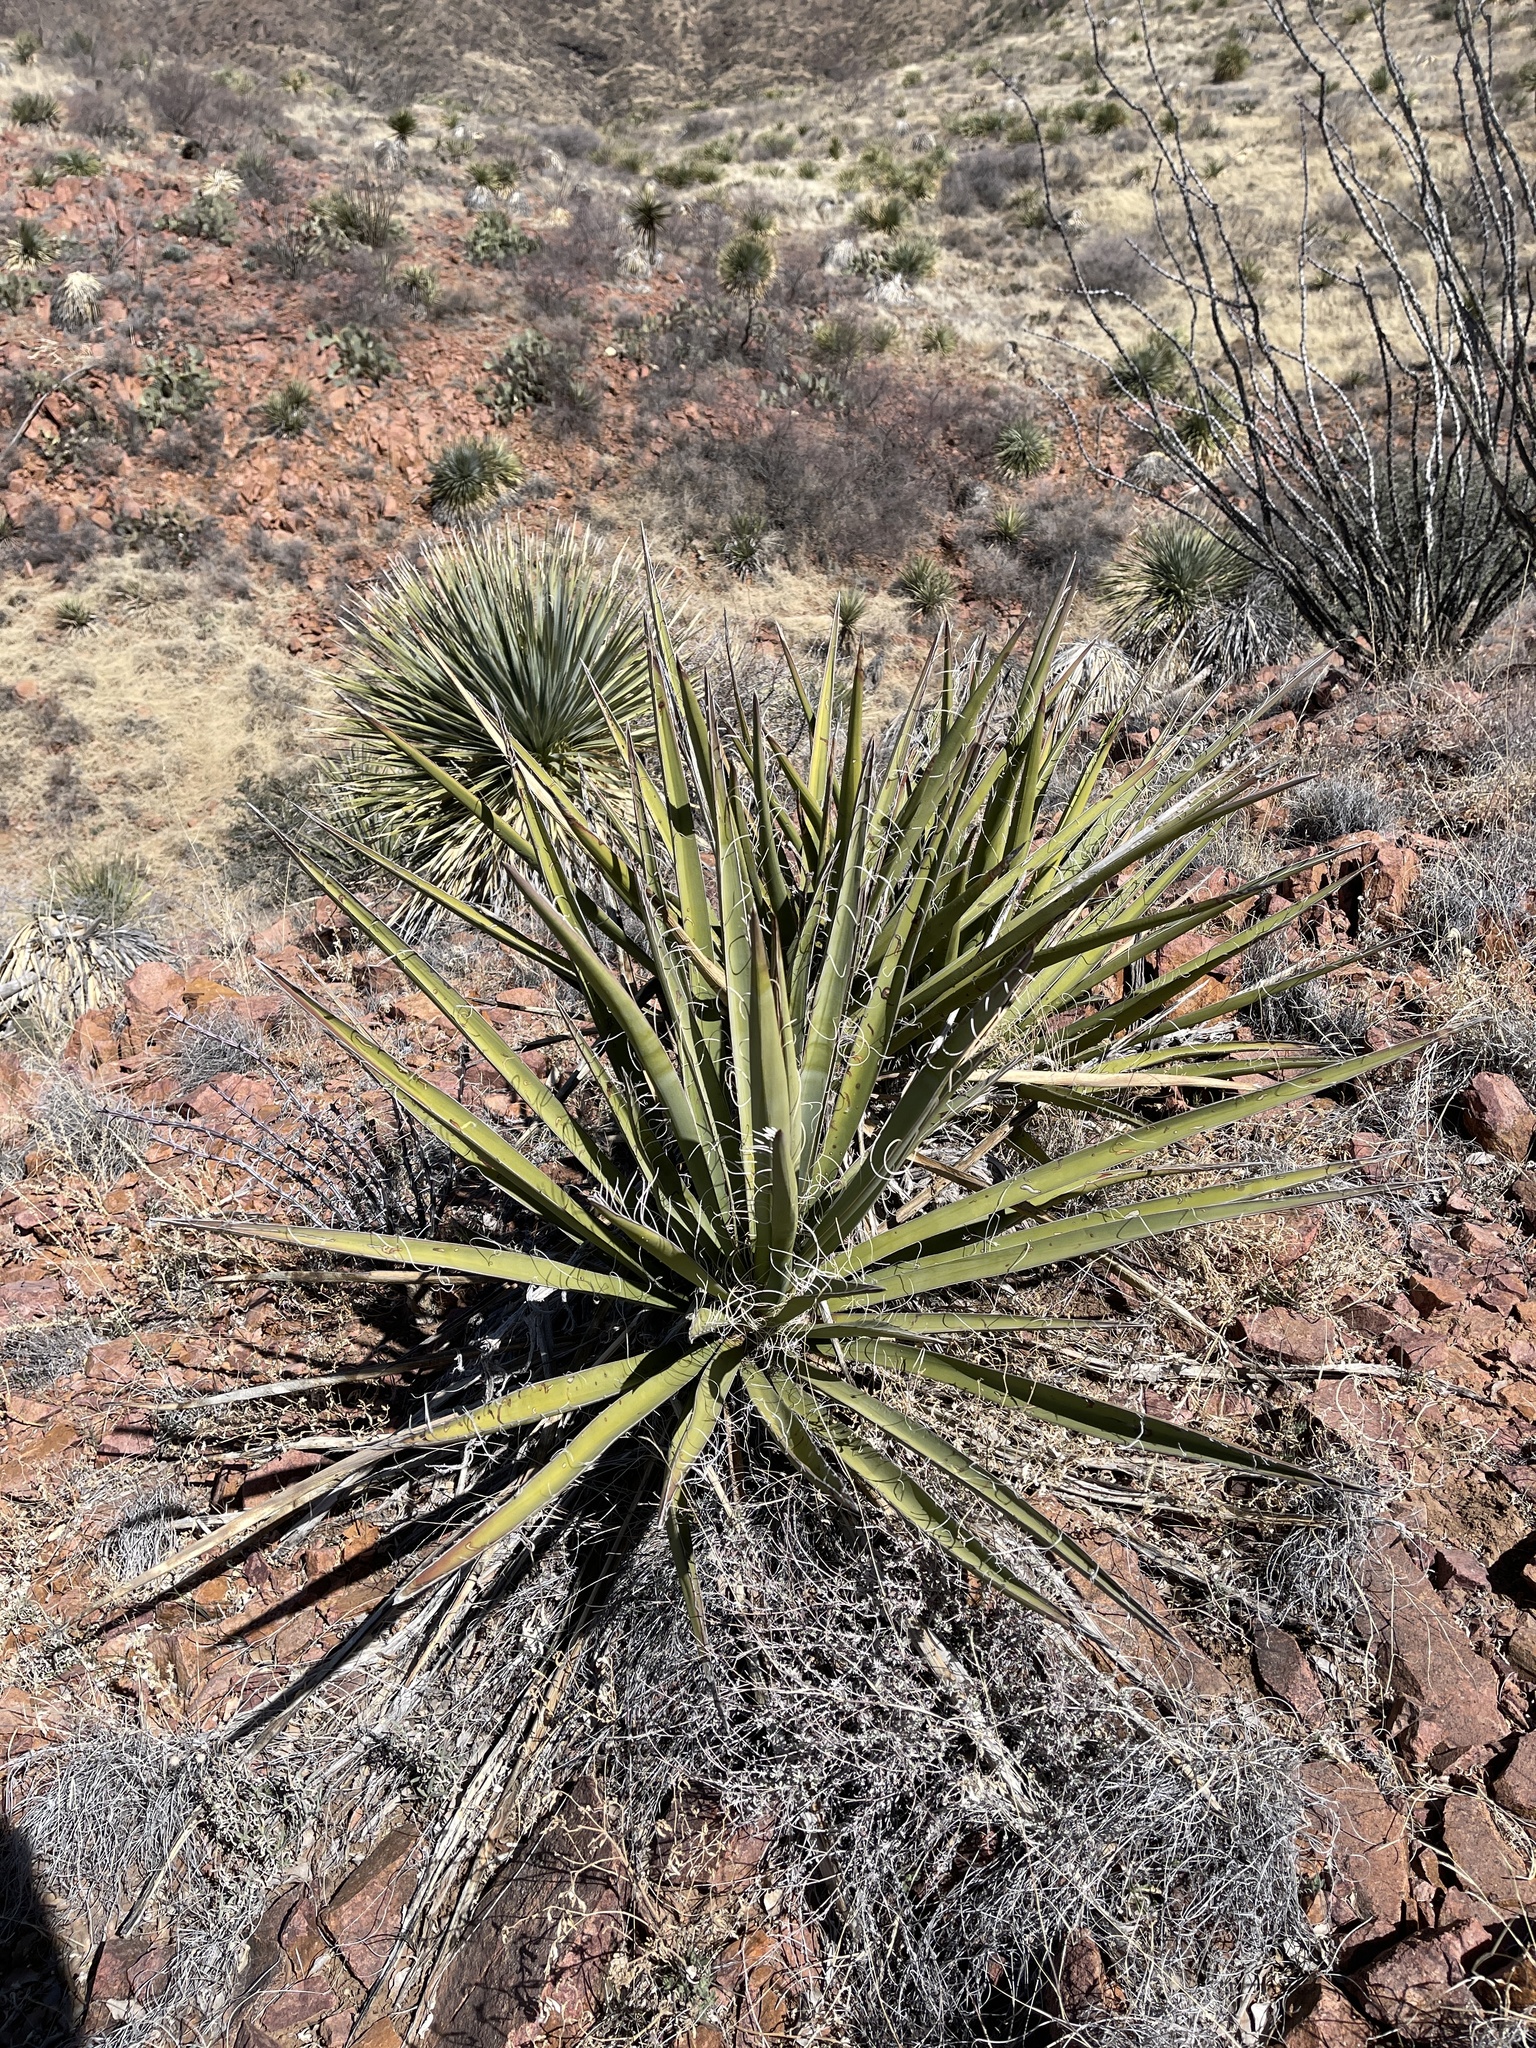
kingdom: Plantae
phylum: Tracheophyta
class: Liliopsida
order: Asparagales
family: Asparagaceae
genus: Yucca
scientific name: Yucca baccata
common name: Banana yucca
